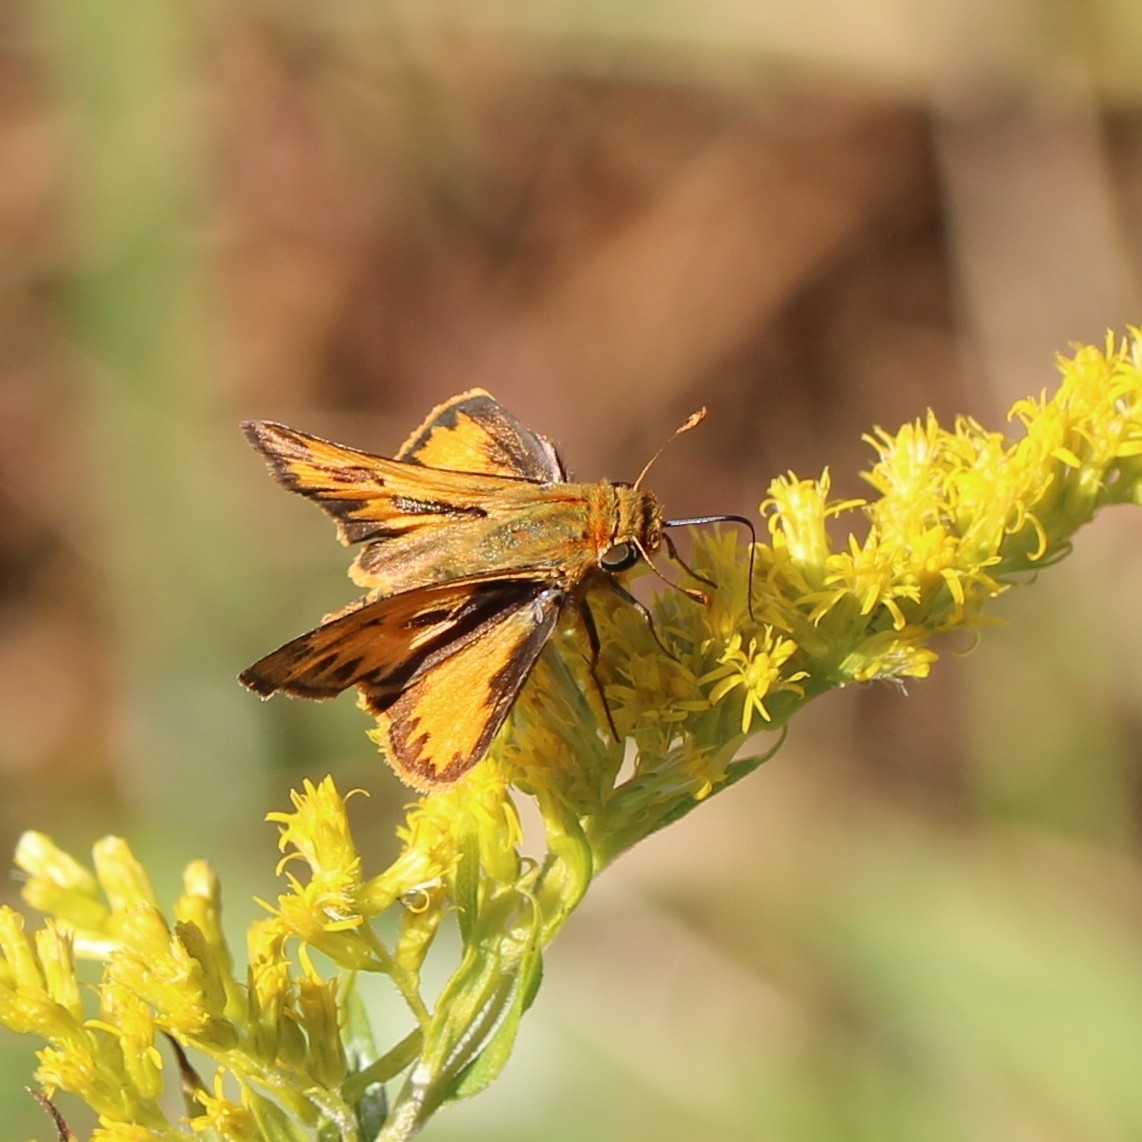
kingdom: Animalia
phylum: Arthropoda
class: Insecta
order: Lepidoptera
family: Hesperiidae
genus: Hylephila
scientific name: Hylephila phyleus
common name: Fiery skipper
